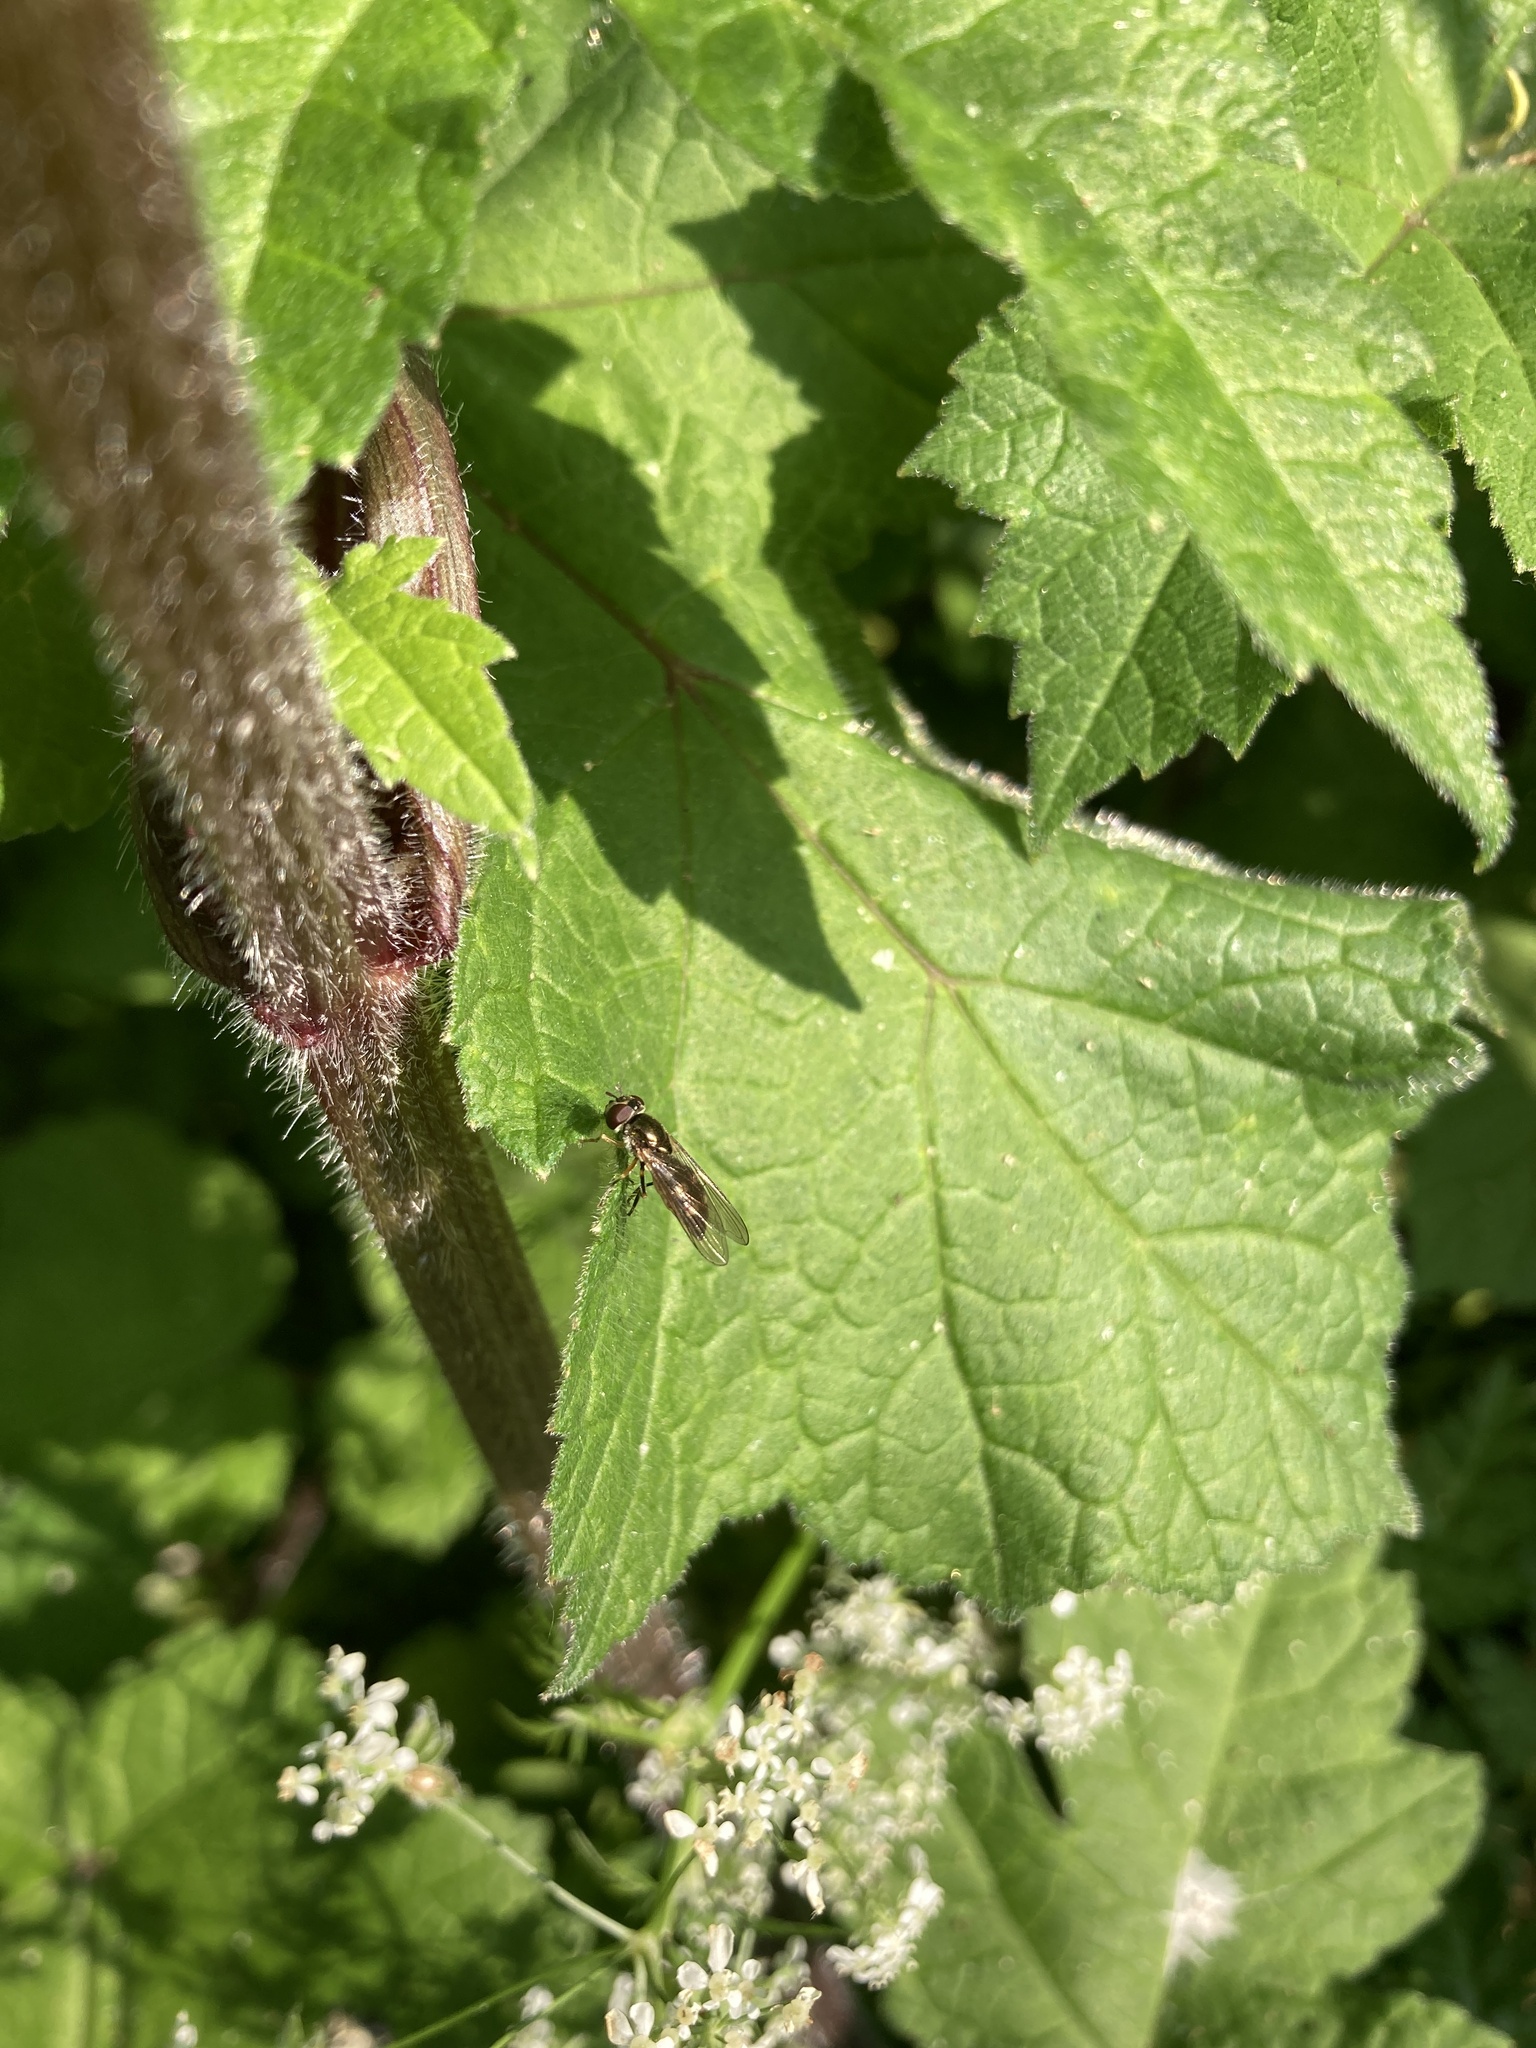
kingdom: Animalia
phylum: Arthropoda
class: Insecta
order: Diptera
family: Syrphidae
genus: Melanostoma
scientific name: Melanostoma scalare
